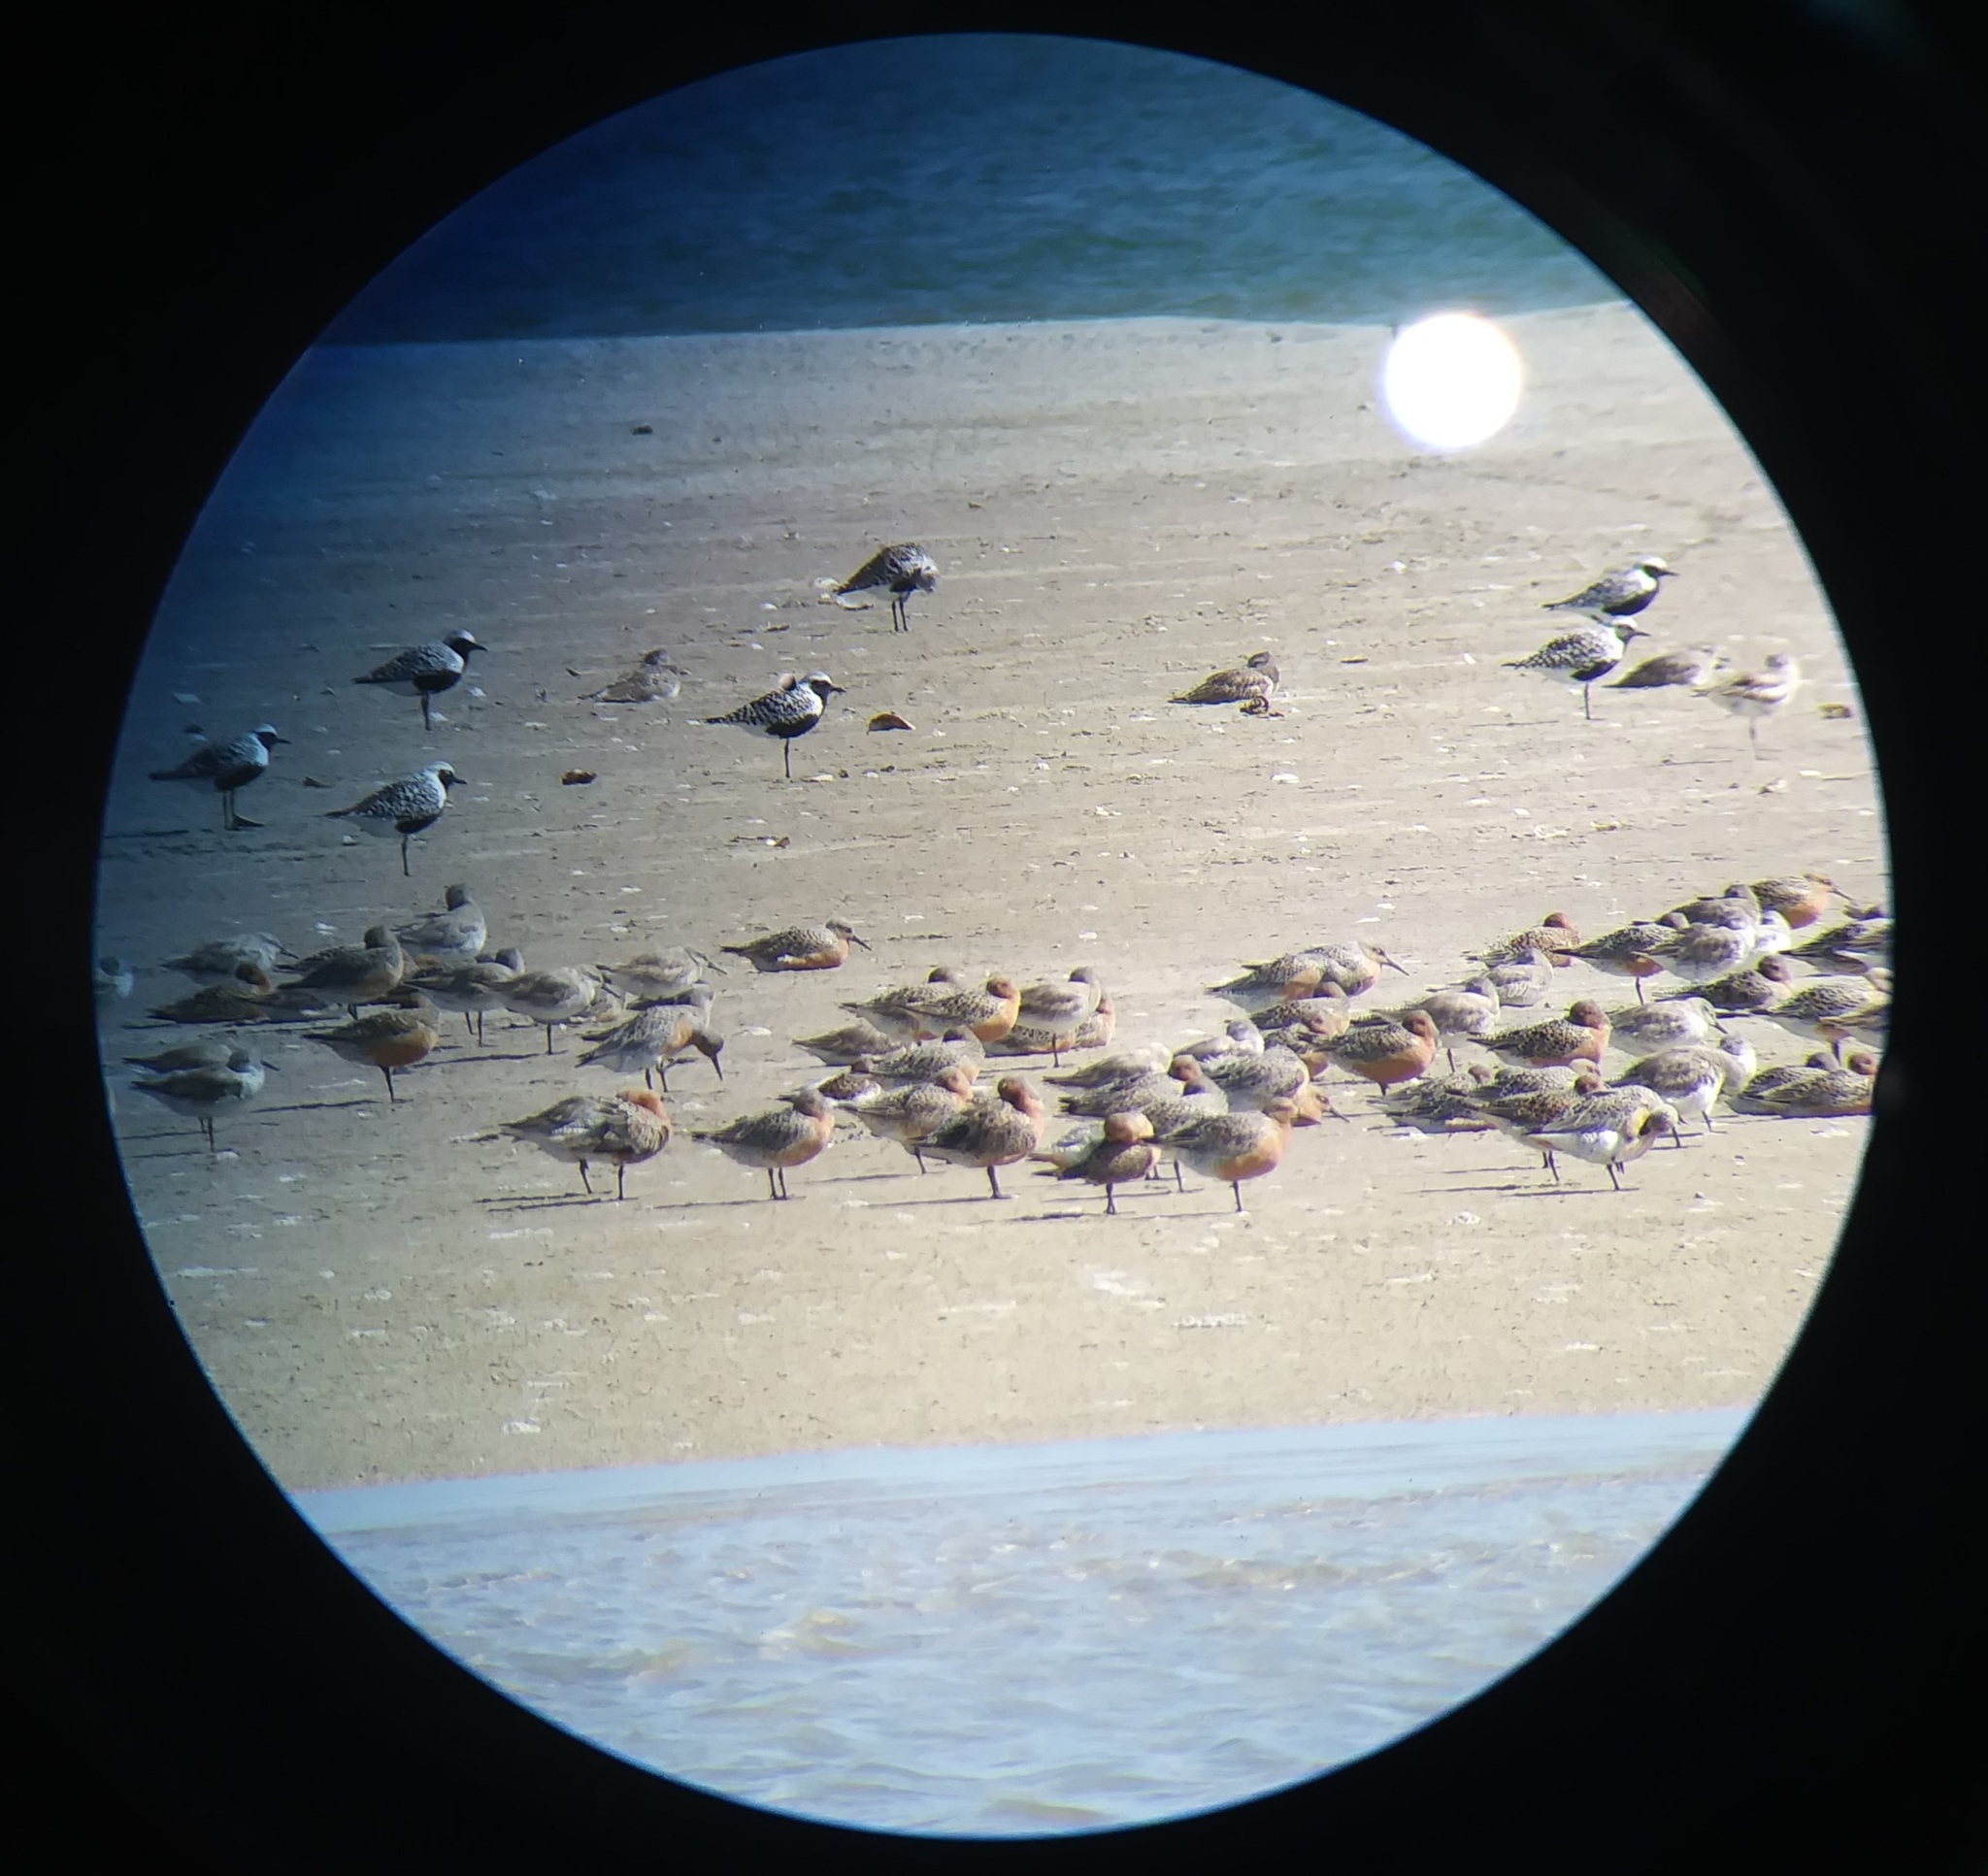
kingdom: Animalia
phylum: Chordata
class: Aves
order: Charadriiformes
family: Scolopacidae
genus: Calidris
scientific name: Calidris canutus
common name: Red knot
